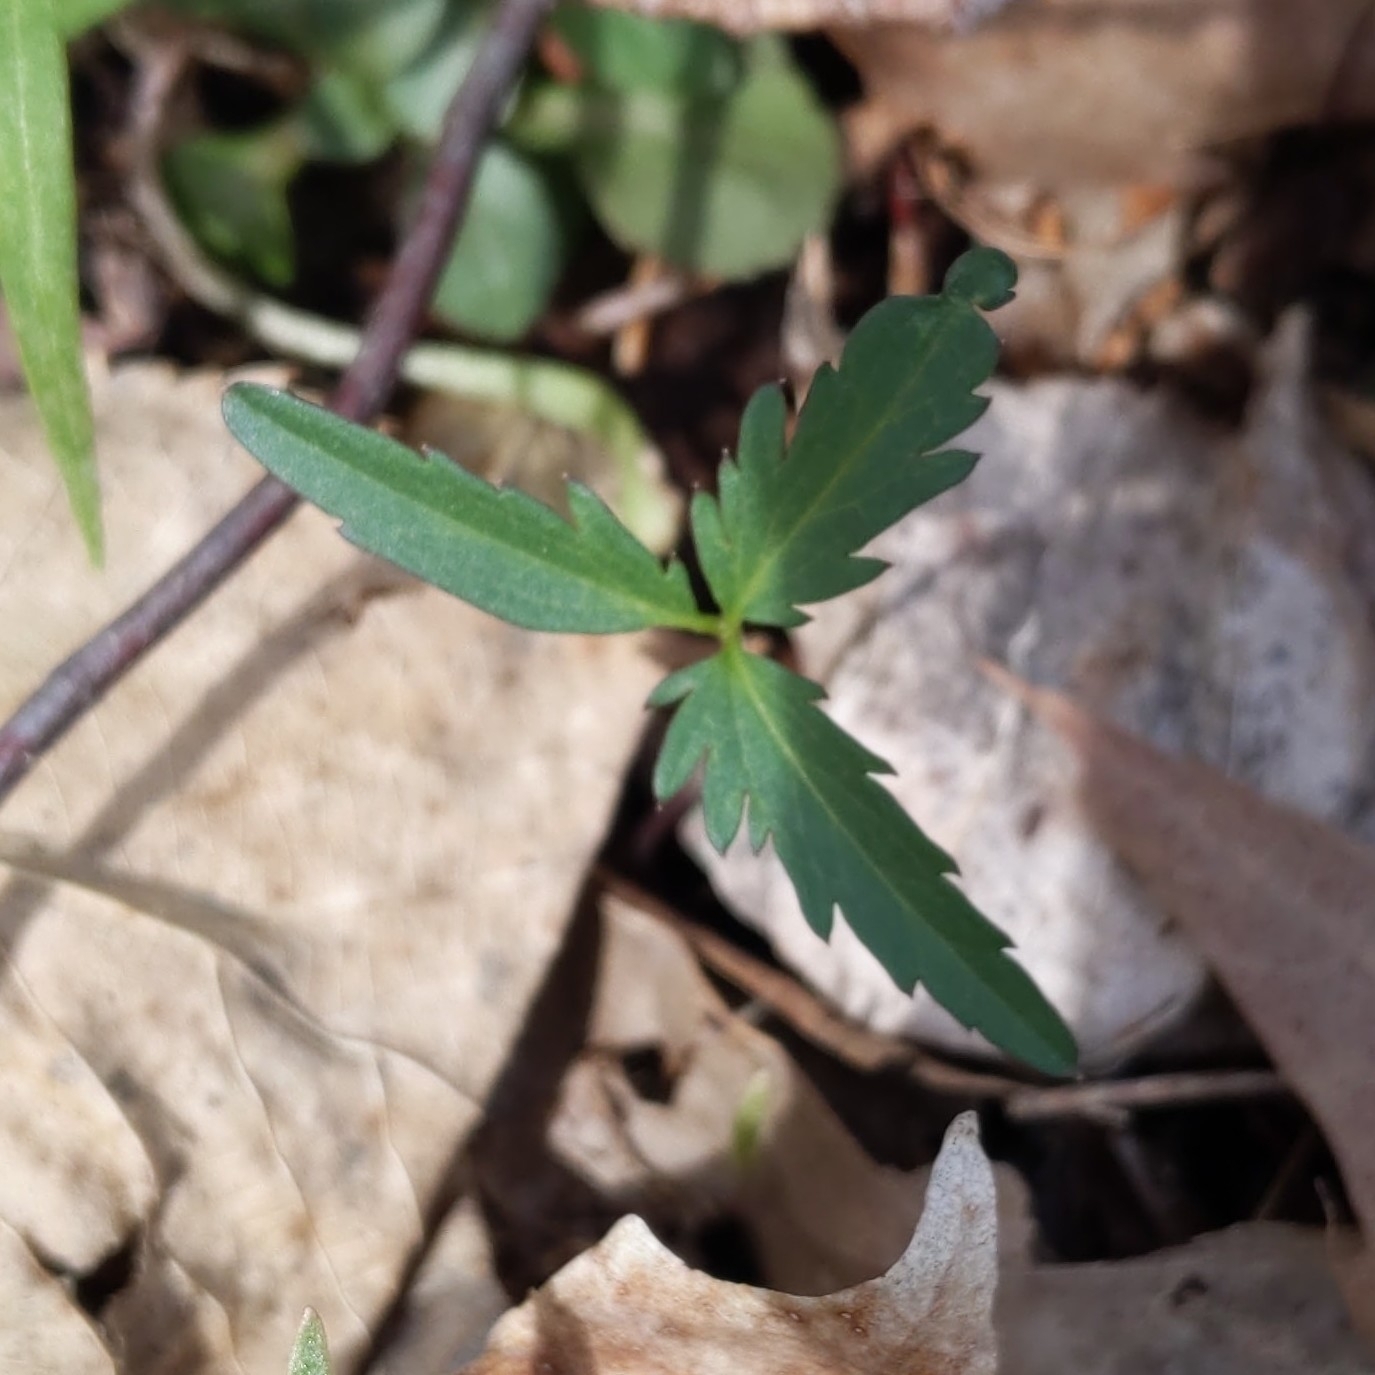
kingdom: Plantae
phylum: Tracheophyta
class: Magnoliopsida
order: Brassicales
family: Brassicaceae
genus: Cardamine
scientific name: Cardamine concatenata
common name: Cut-leaf toothcup
